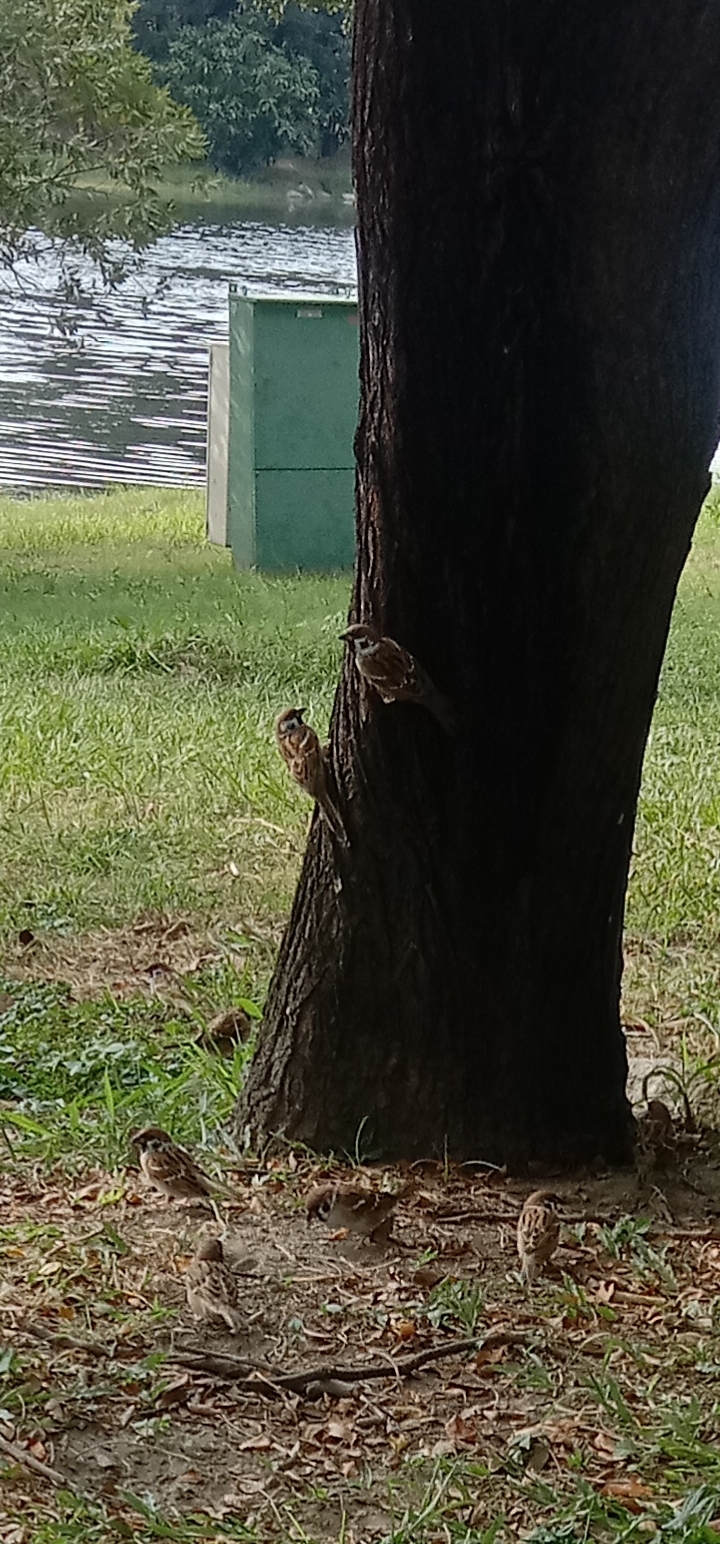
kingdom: Animalia
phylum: Chordata
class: Aves
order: Passeriformes
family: Passeridae
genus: Passer
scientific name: Passer montanus
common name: Eurasian tree sparrow
